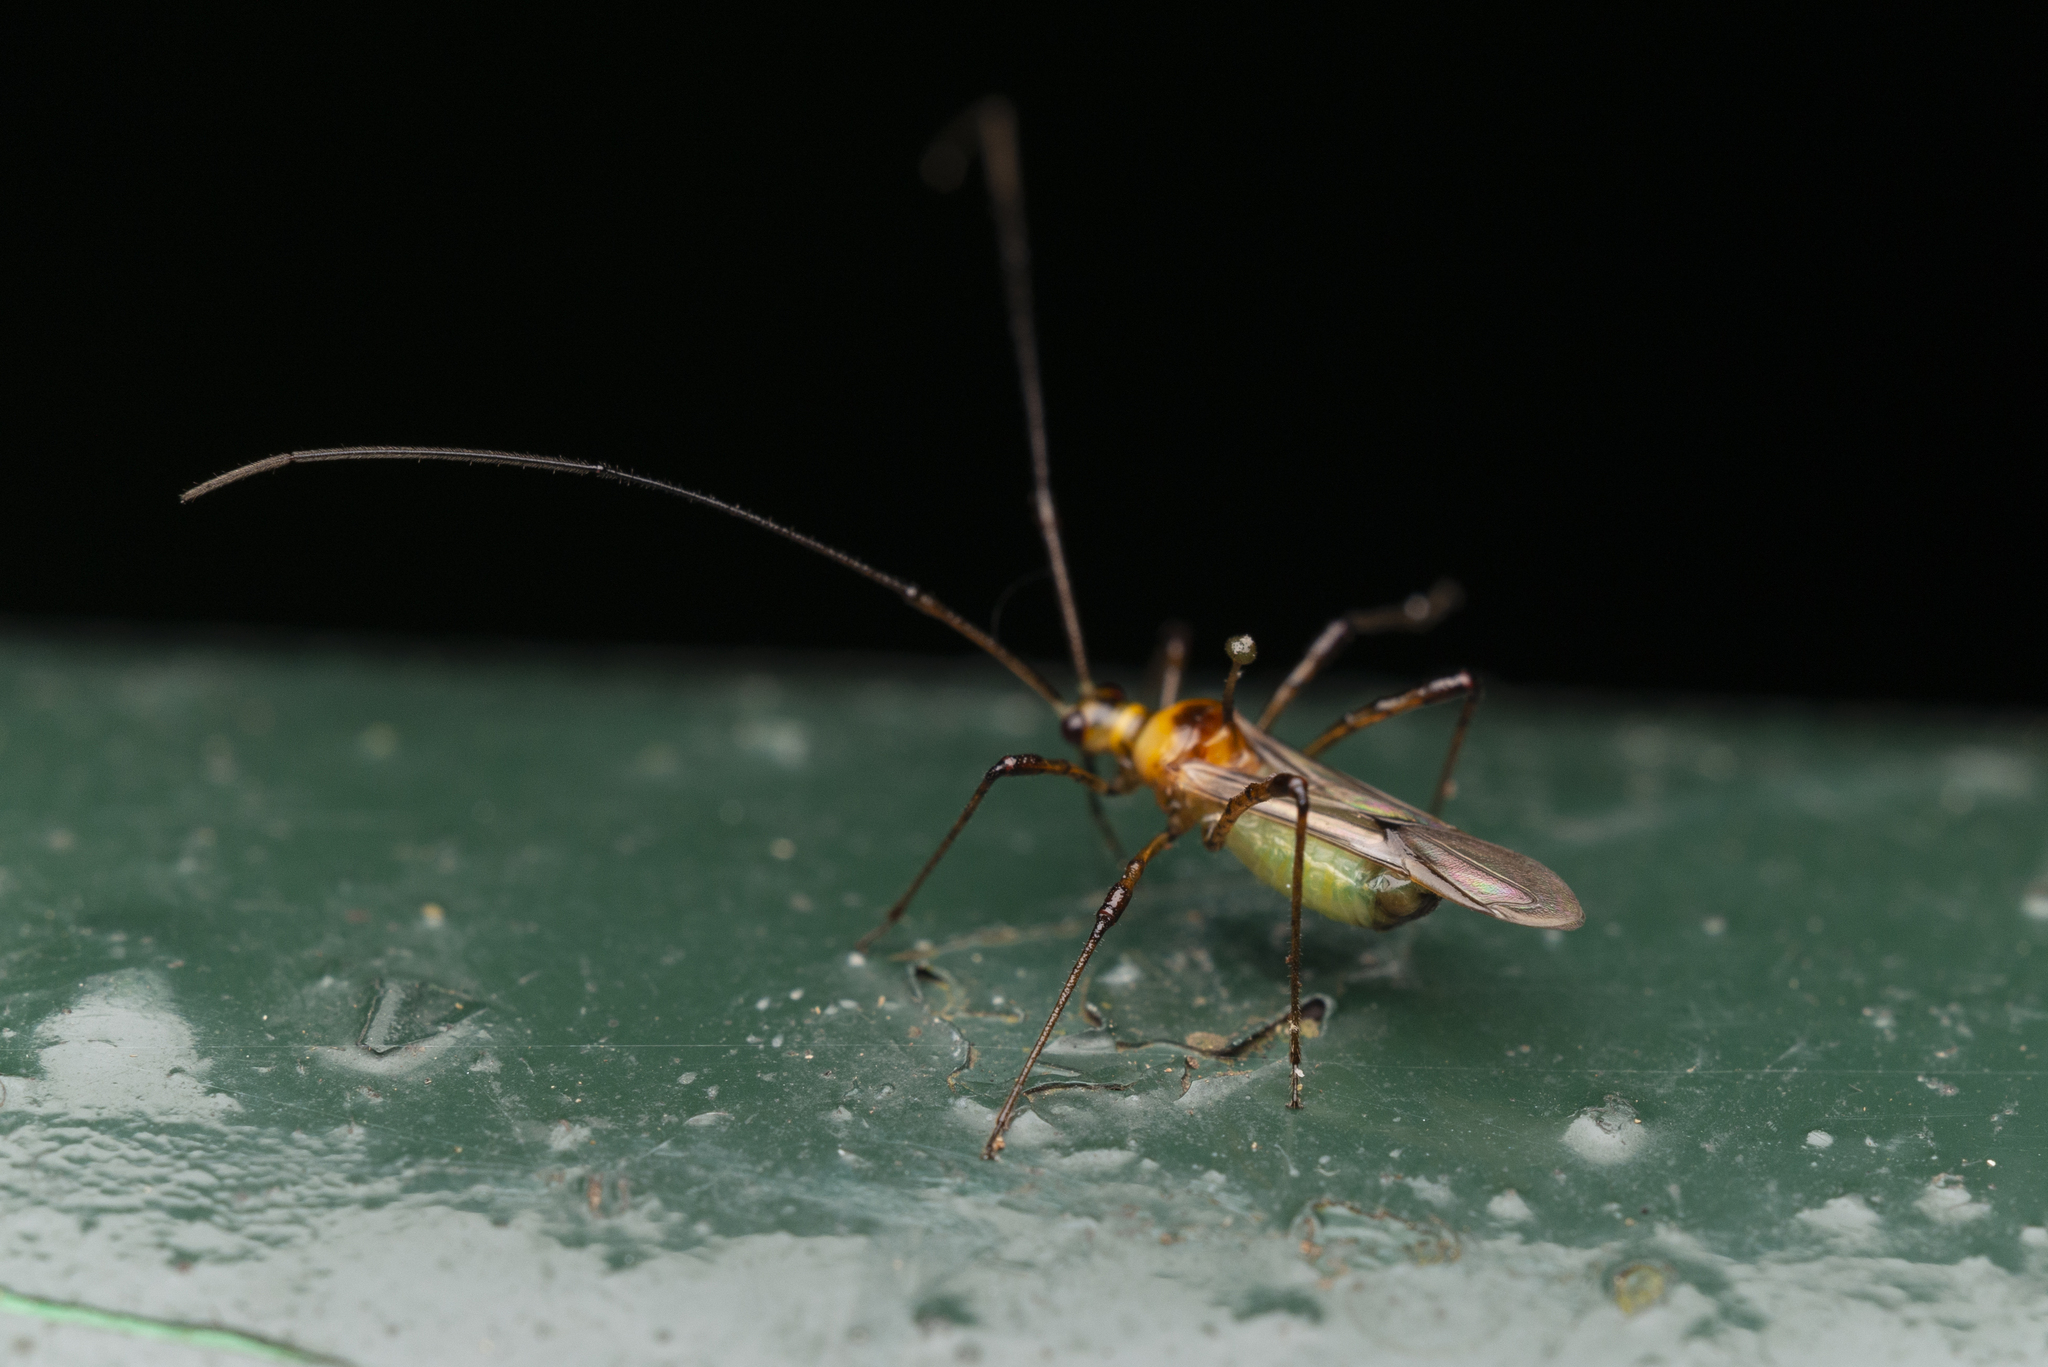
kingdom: Animalia
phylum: Arthropoda
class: Insecta
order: Hemiptera
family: Miridae
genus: Helopeltis
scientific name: Helopeltis theivora
